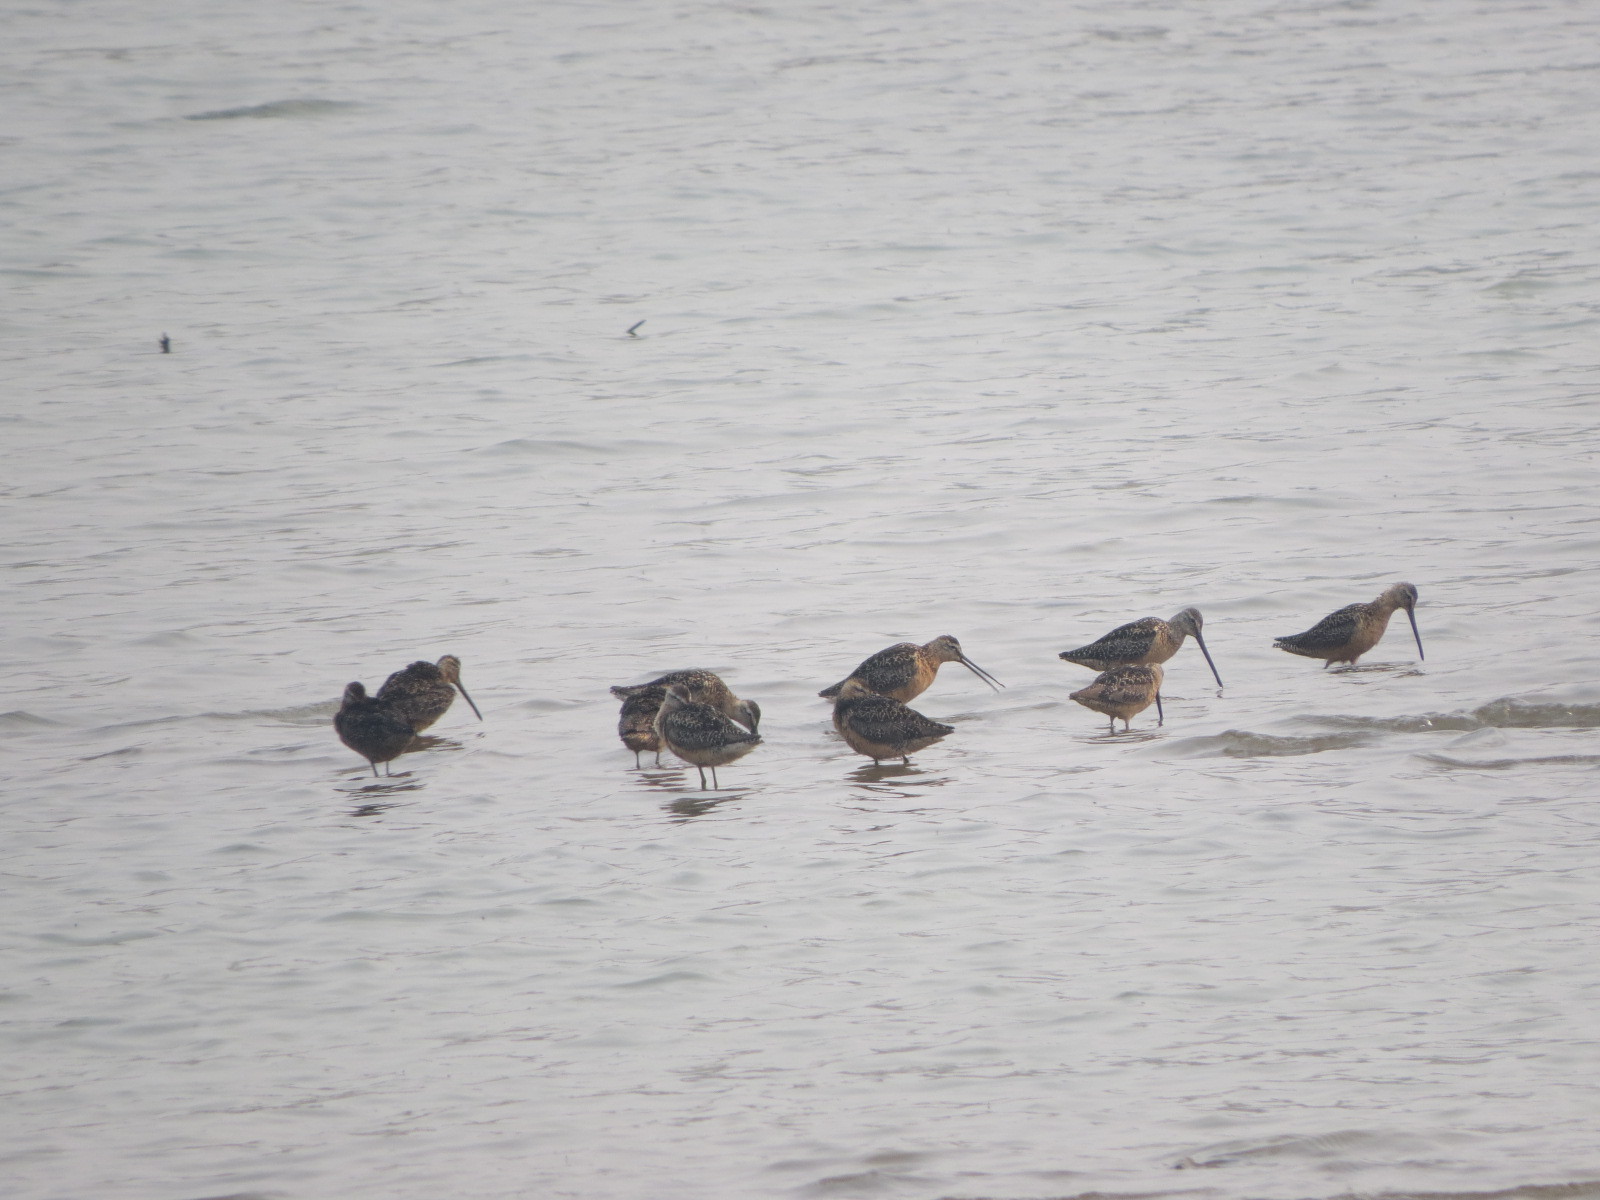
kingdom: Animalia
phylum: Chordata
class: Aves
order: Charadriiformes
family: Scolopacidae
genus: Limnodromus
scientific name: Limnodromus scolopaceus
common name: Long-billed dowitcher
